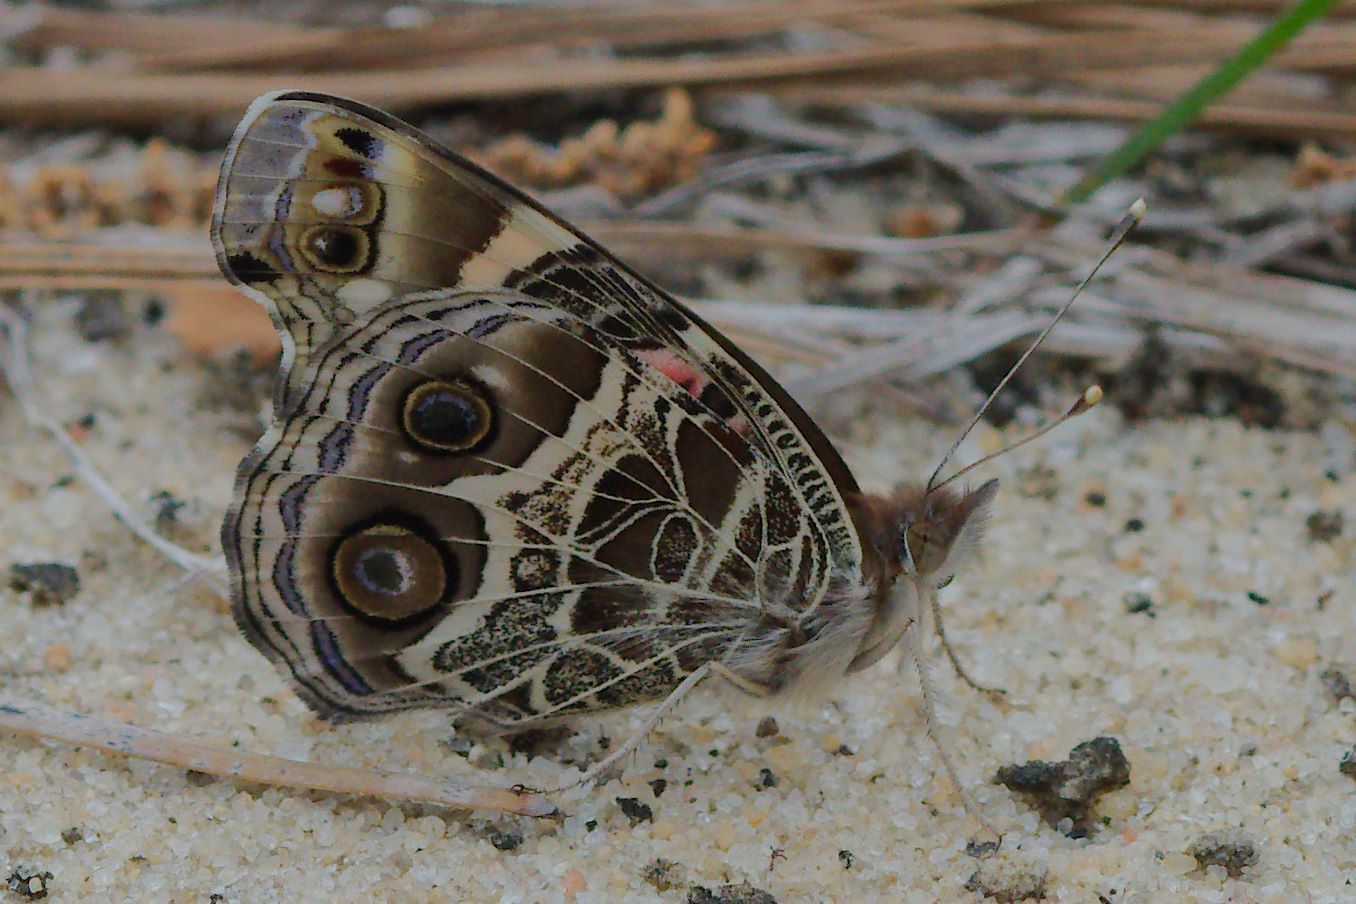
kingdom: Animalia
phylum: Arthropoda
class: Insecta
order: Lepidoptera
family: Nymphalidae
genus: Vanessa
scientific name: Vanessa virginiensis
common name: American lady
